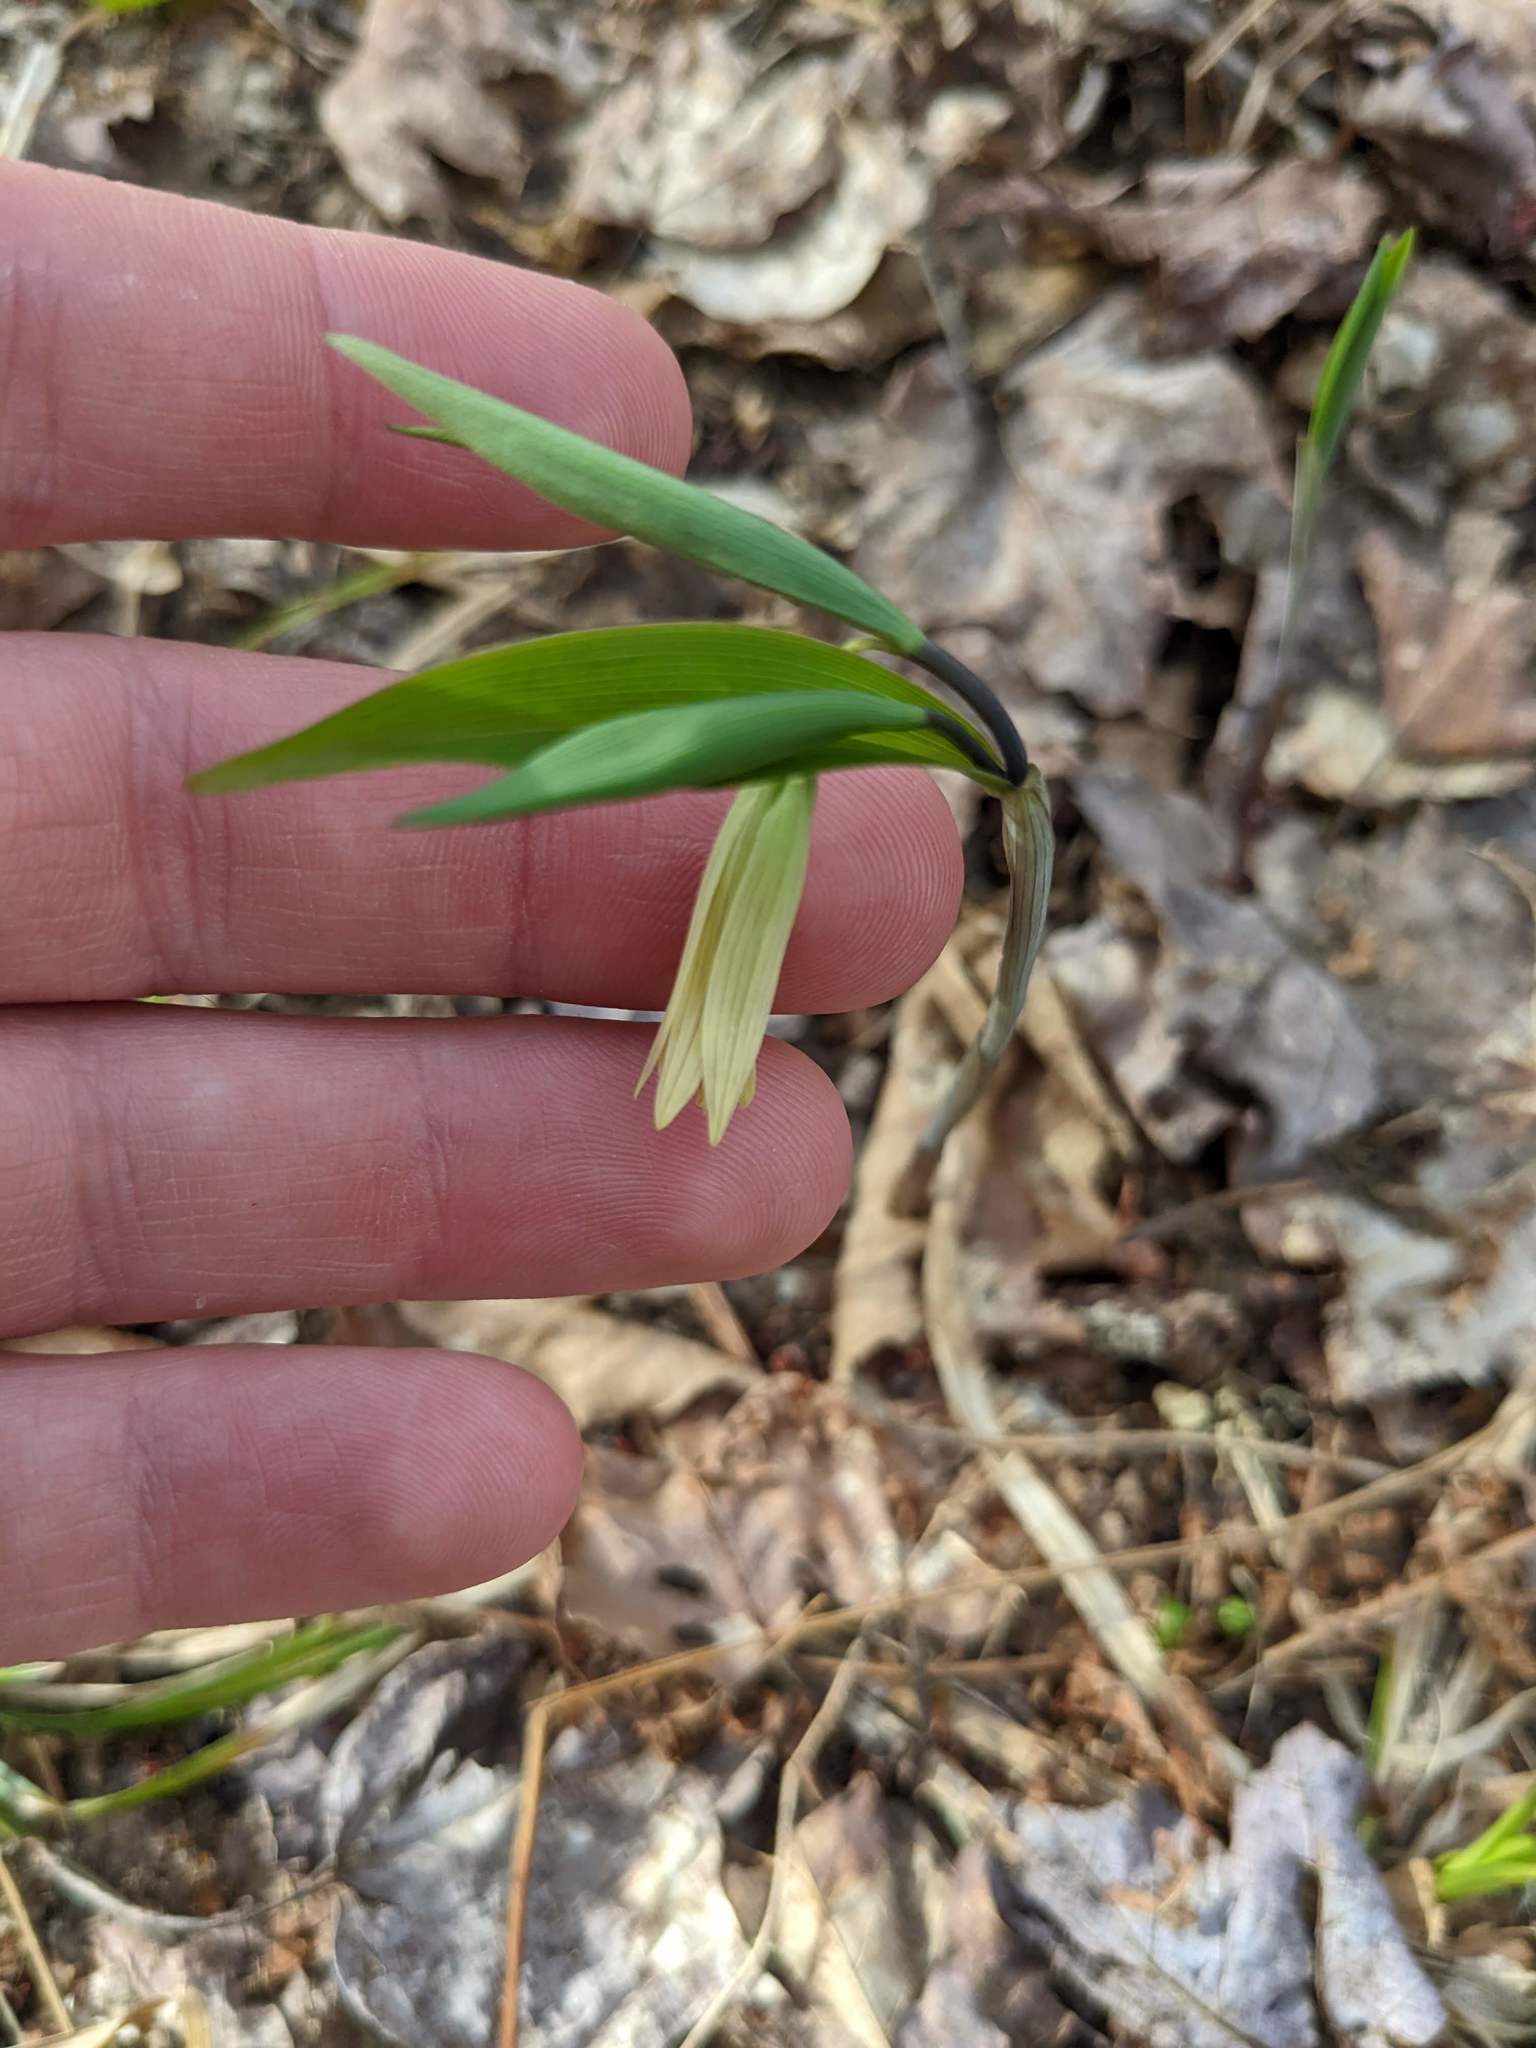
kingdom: Plantae
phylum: Tracheophyta
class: Liliopsida
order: Liliales
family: Colchicaceae
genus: Uvularia
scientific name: Uvularia sessilifolia
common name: Straw-lily
